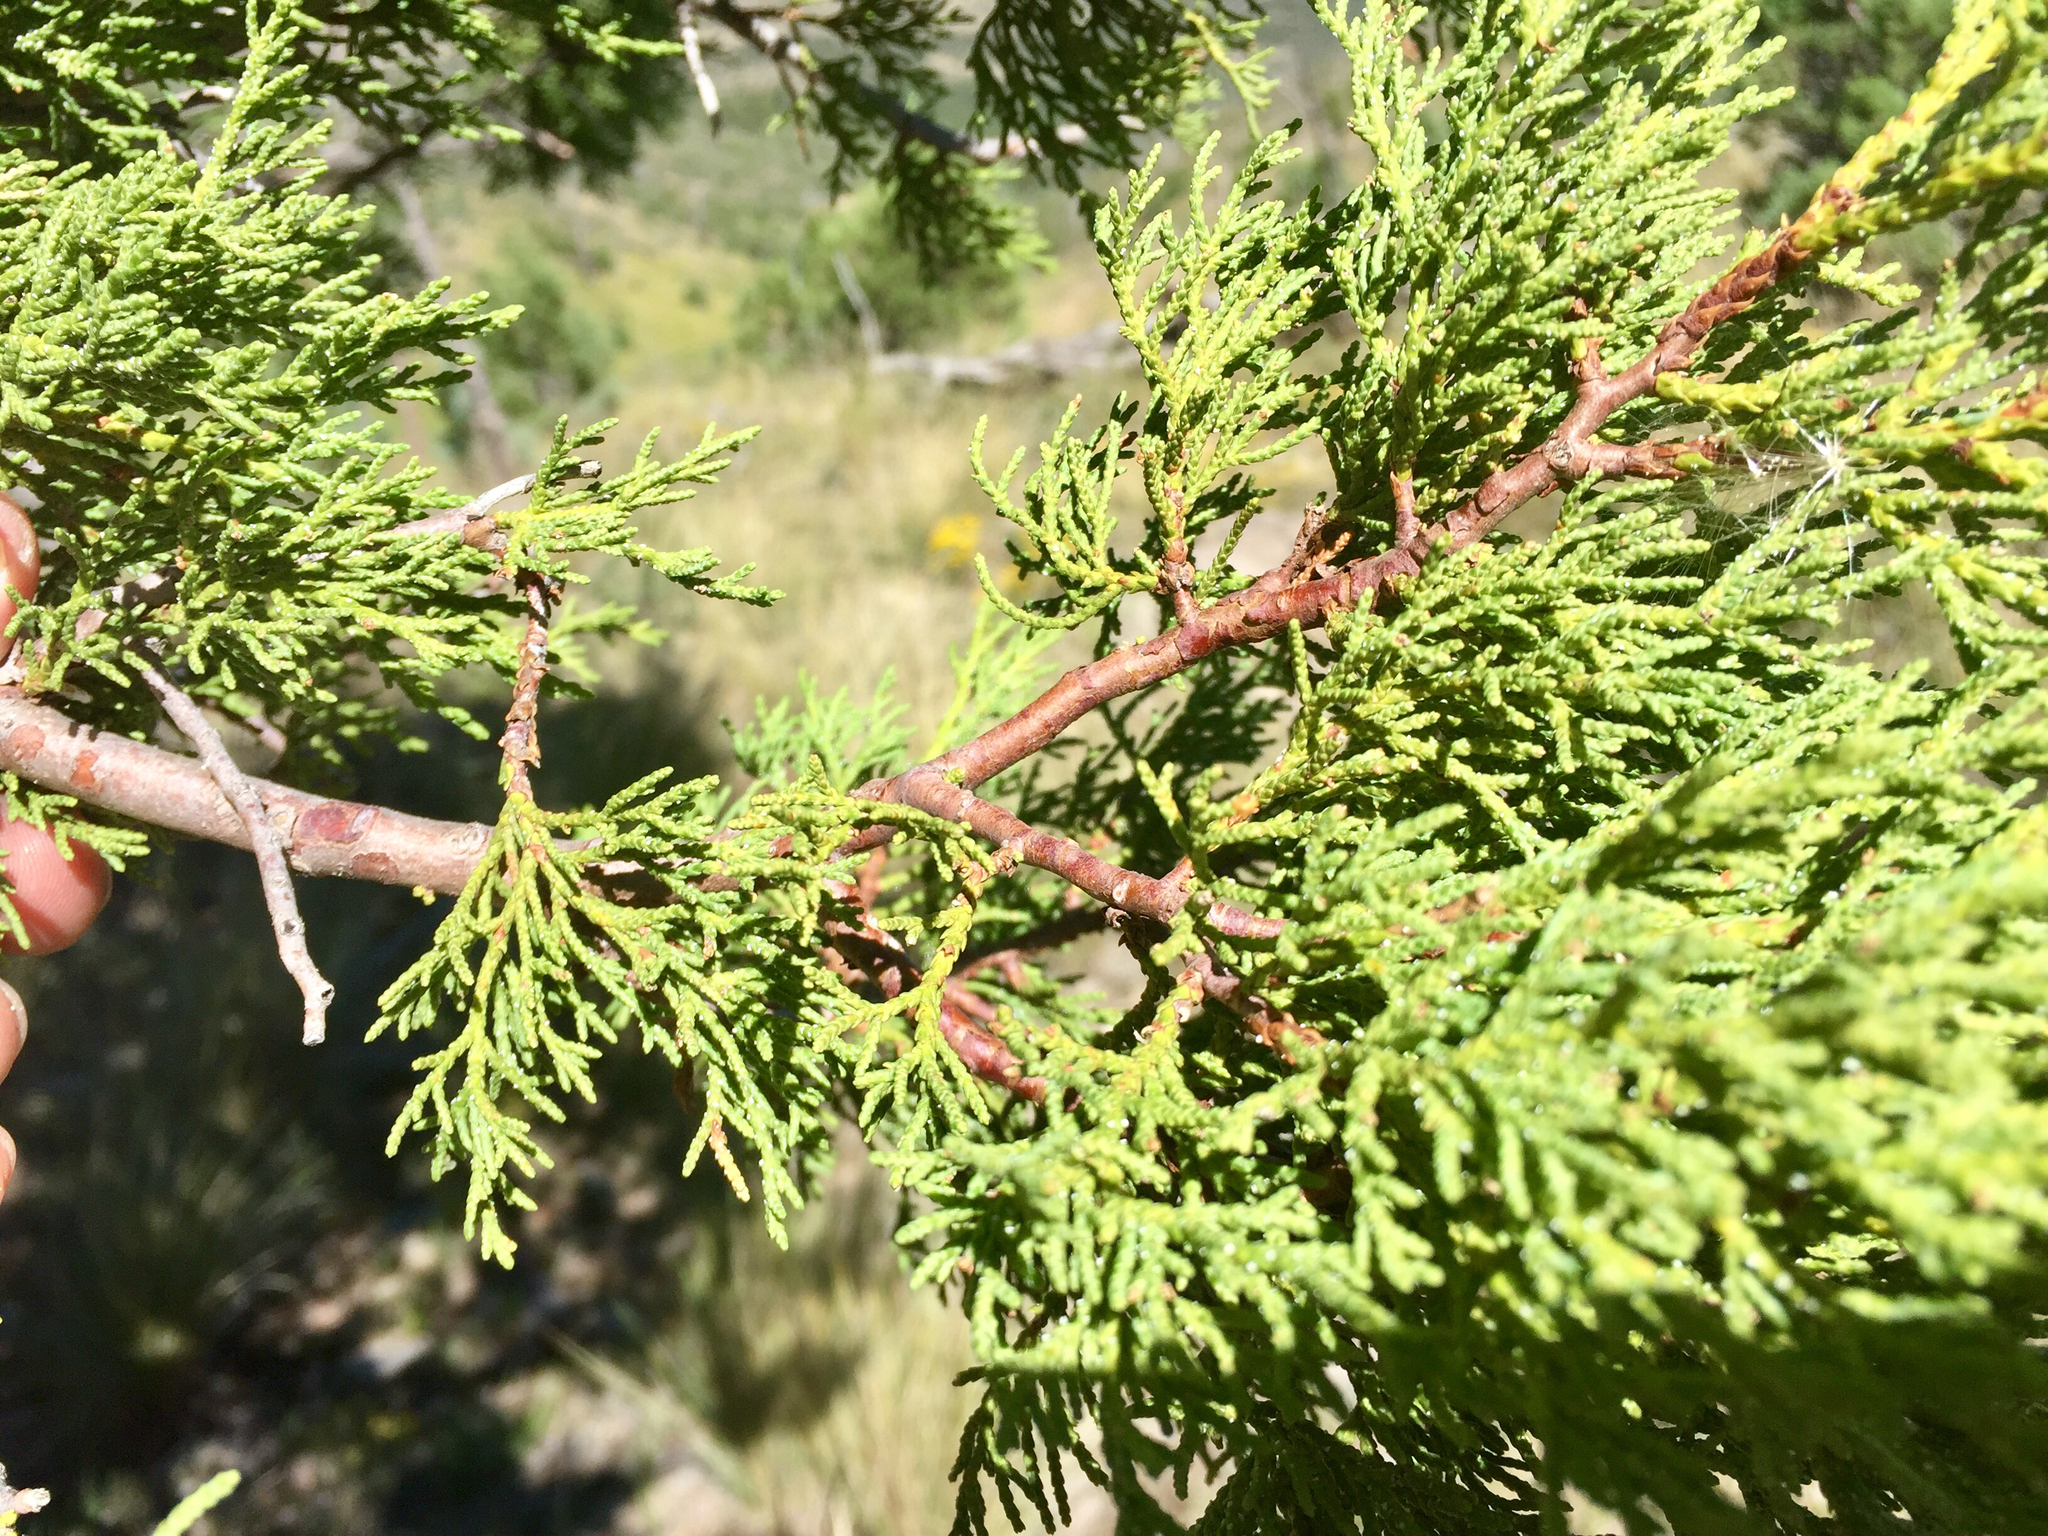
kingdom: Plantae
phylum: Tracheophyta
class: Pinopsida
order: Pinales
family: Cupressaceae
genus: Juniperus
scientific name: Juniperus monosperma
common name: One-seed juniper
